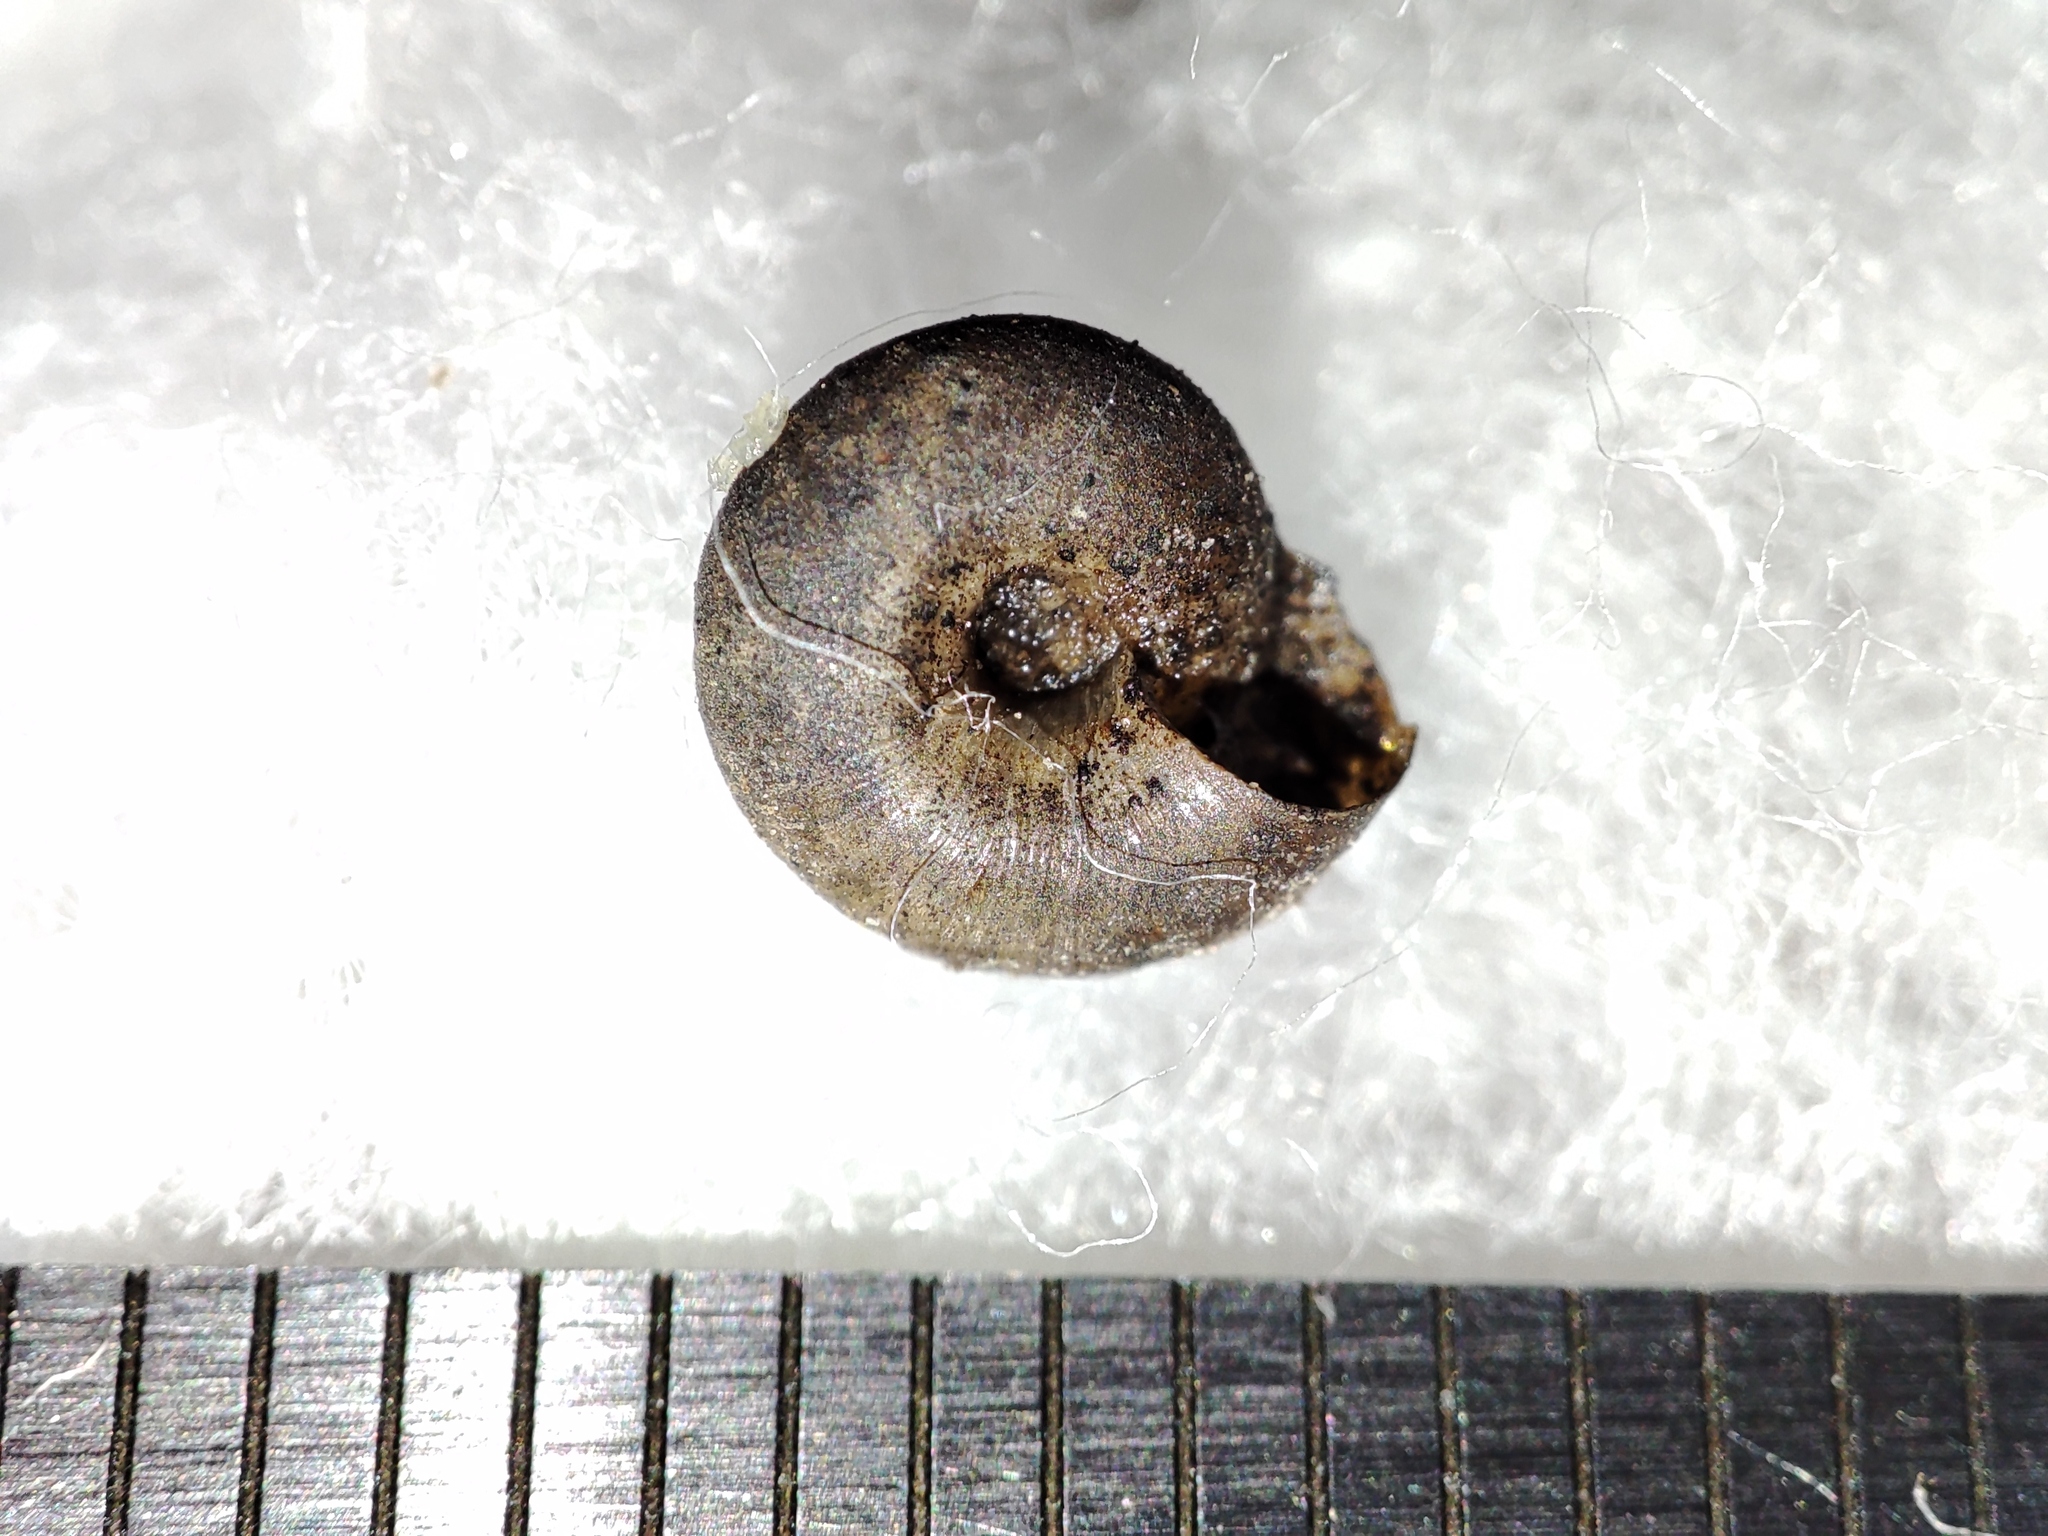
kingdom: Animalia
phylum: Mollusca
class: Gastropoda
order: Stylommatophora
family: Hygromiidae
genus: Trochulus
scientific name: Trochulus hispidus
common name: Hairy snail
